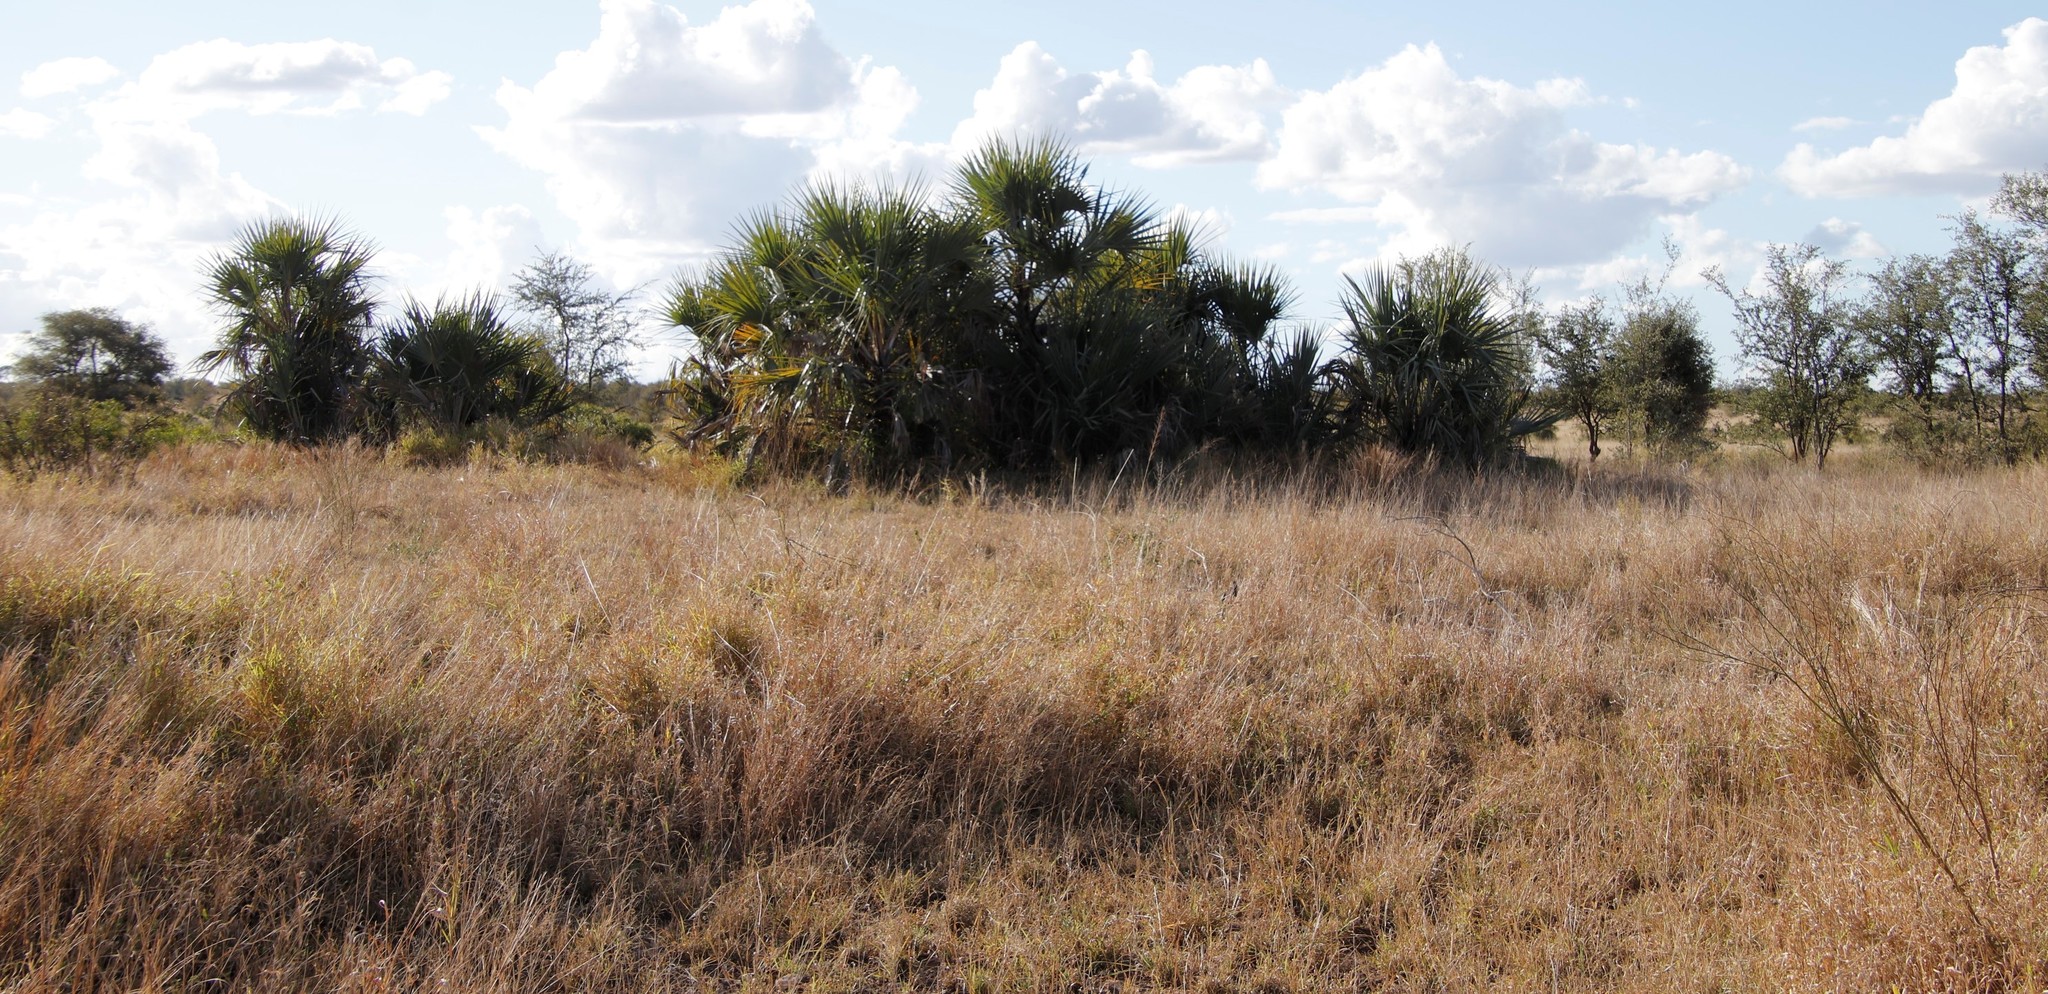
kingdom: Plantae
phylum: Tracheophyta
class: Liliopsida
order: Arecales
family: Arecaceae
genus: Hyphaene
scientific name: Hyphaene coriacea
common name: Ilala palm
